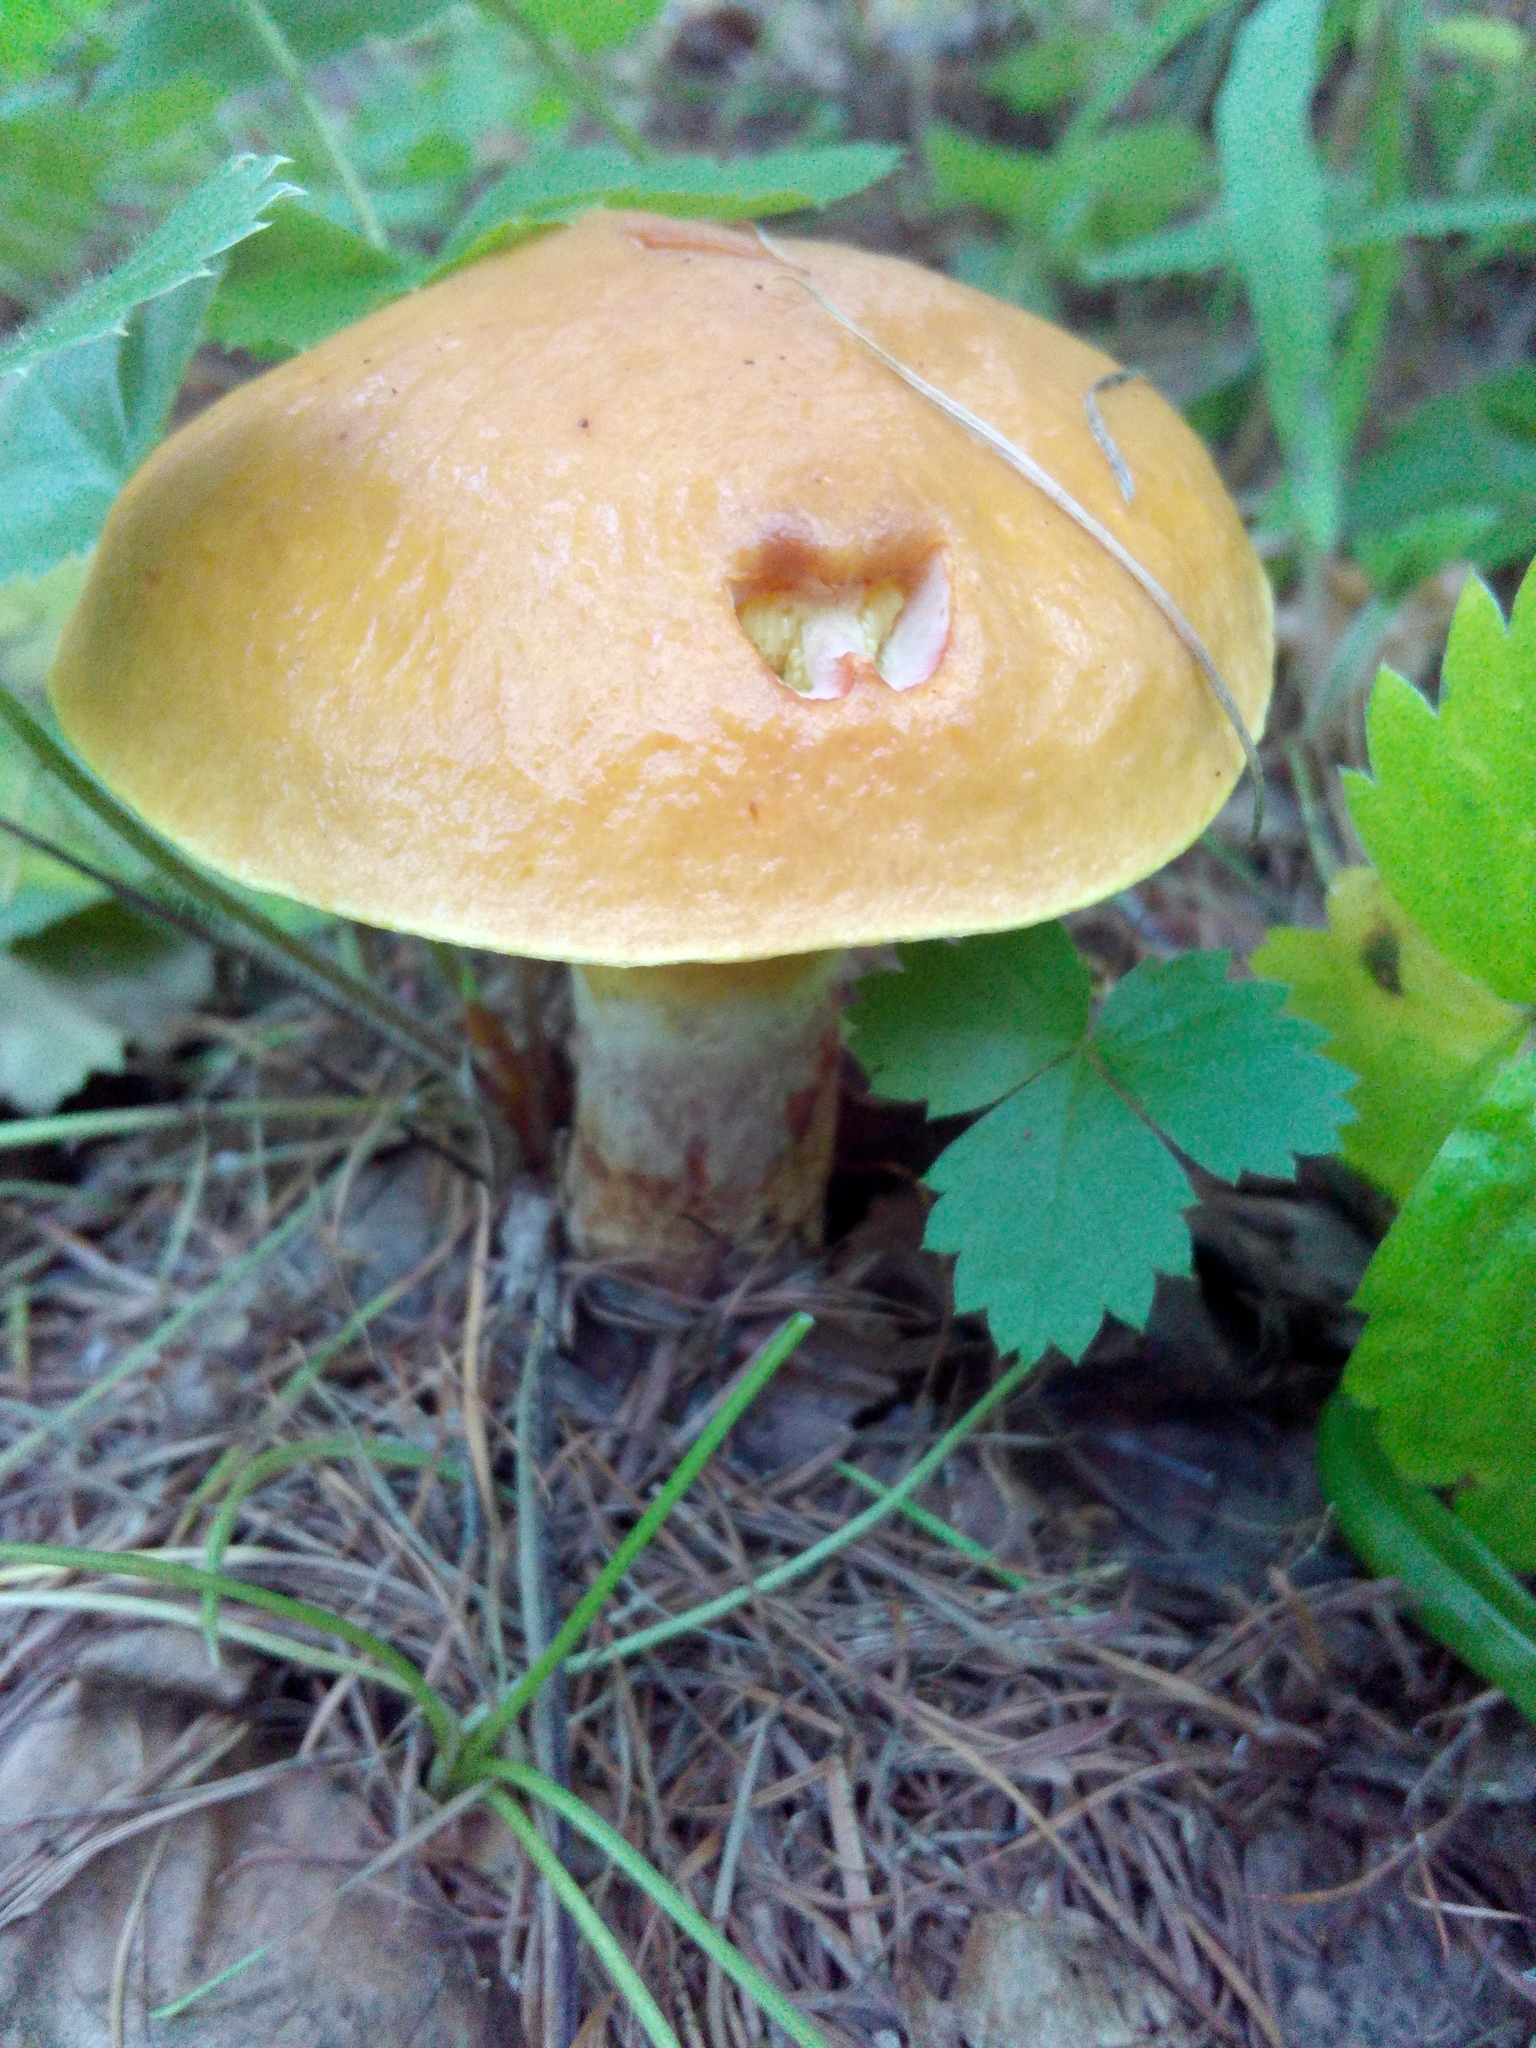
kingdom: Fungi
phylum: Basidiomycota
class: Agaricomycetes
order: Boletales
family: Suillaceae
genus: Suillus
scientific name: Suillus grevillei
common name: Larch bolete
